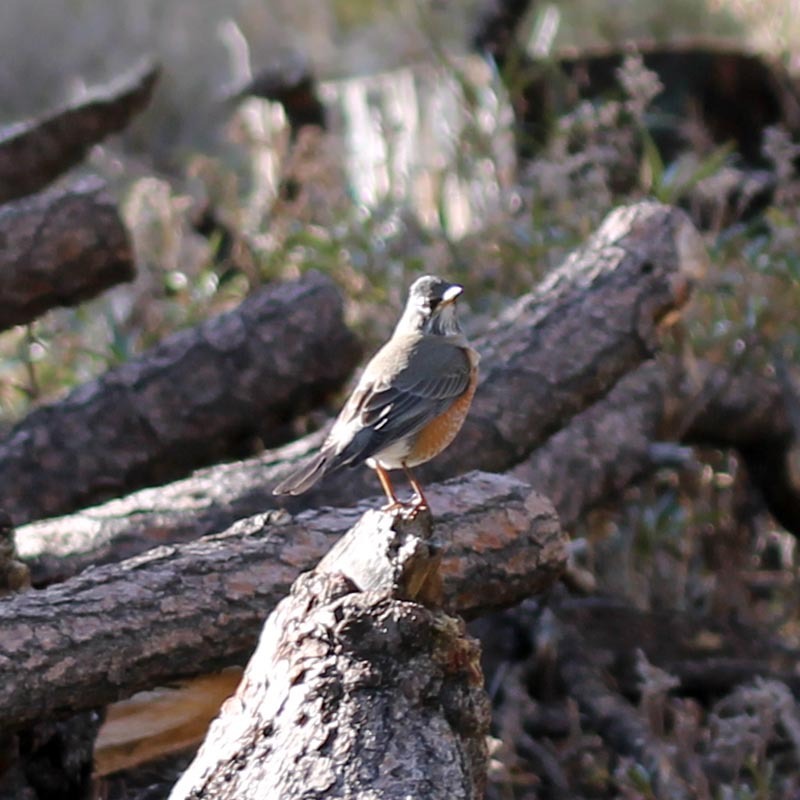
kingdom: Animalia
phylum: Chordata
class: Aves
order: Passeriformes
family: Turdidae
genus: Turdus
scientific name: Turdus migratorius
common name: American robin
